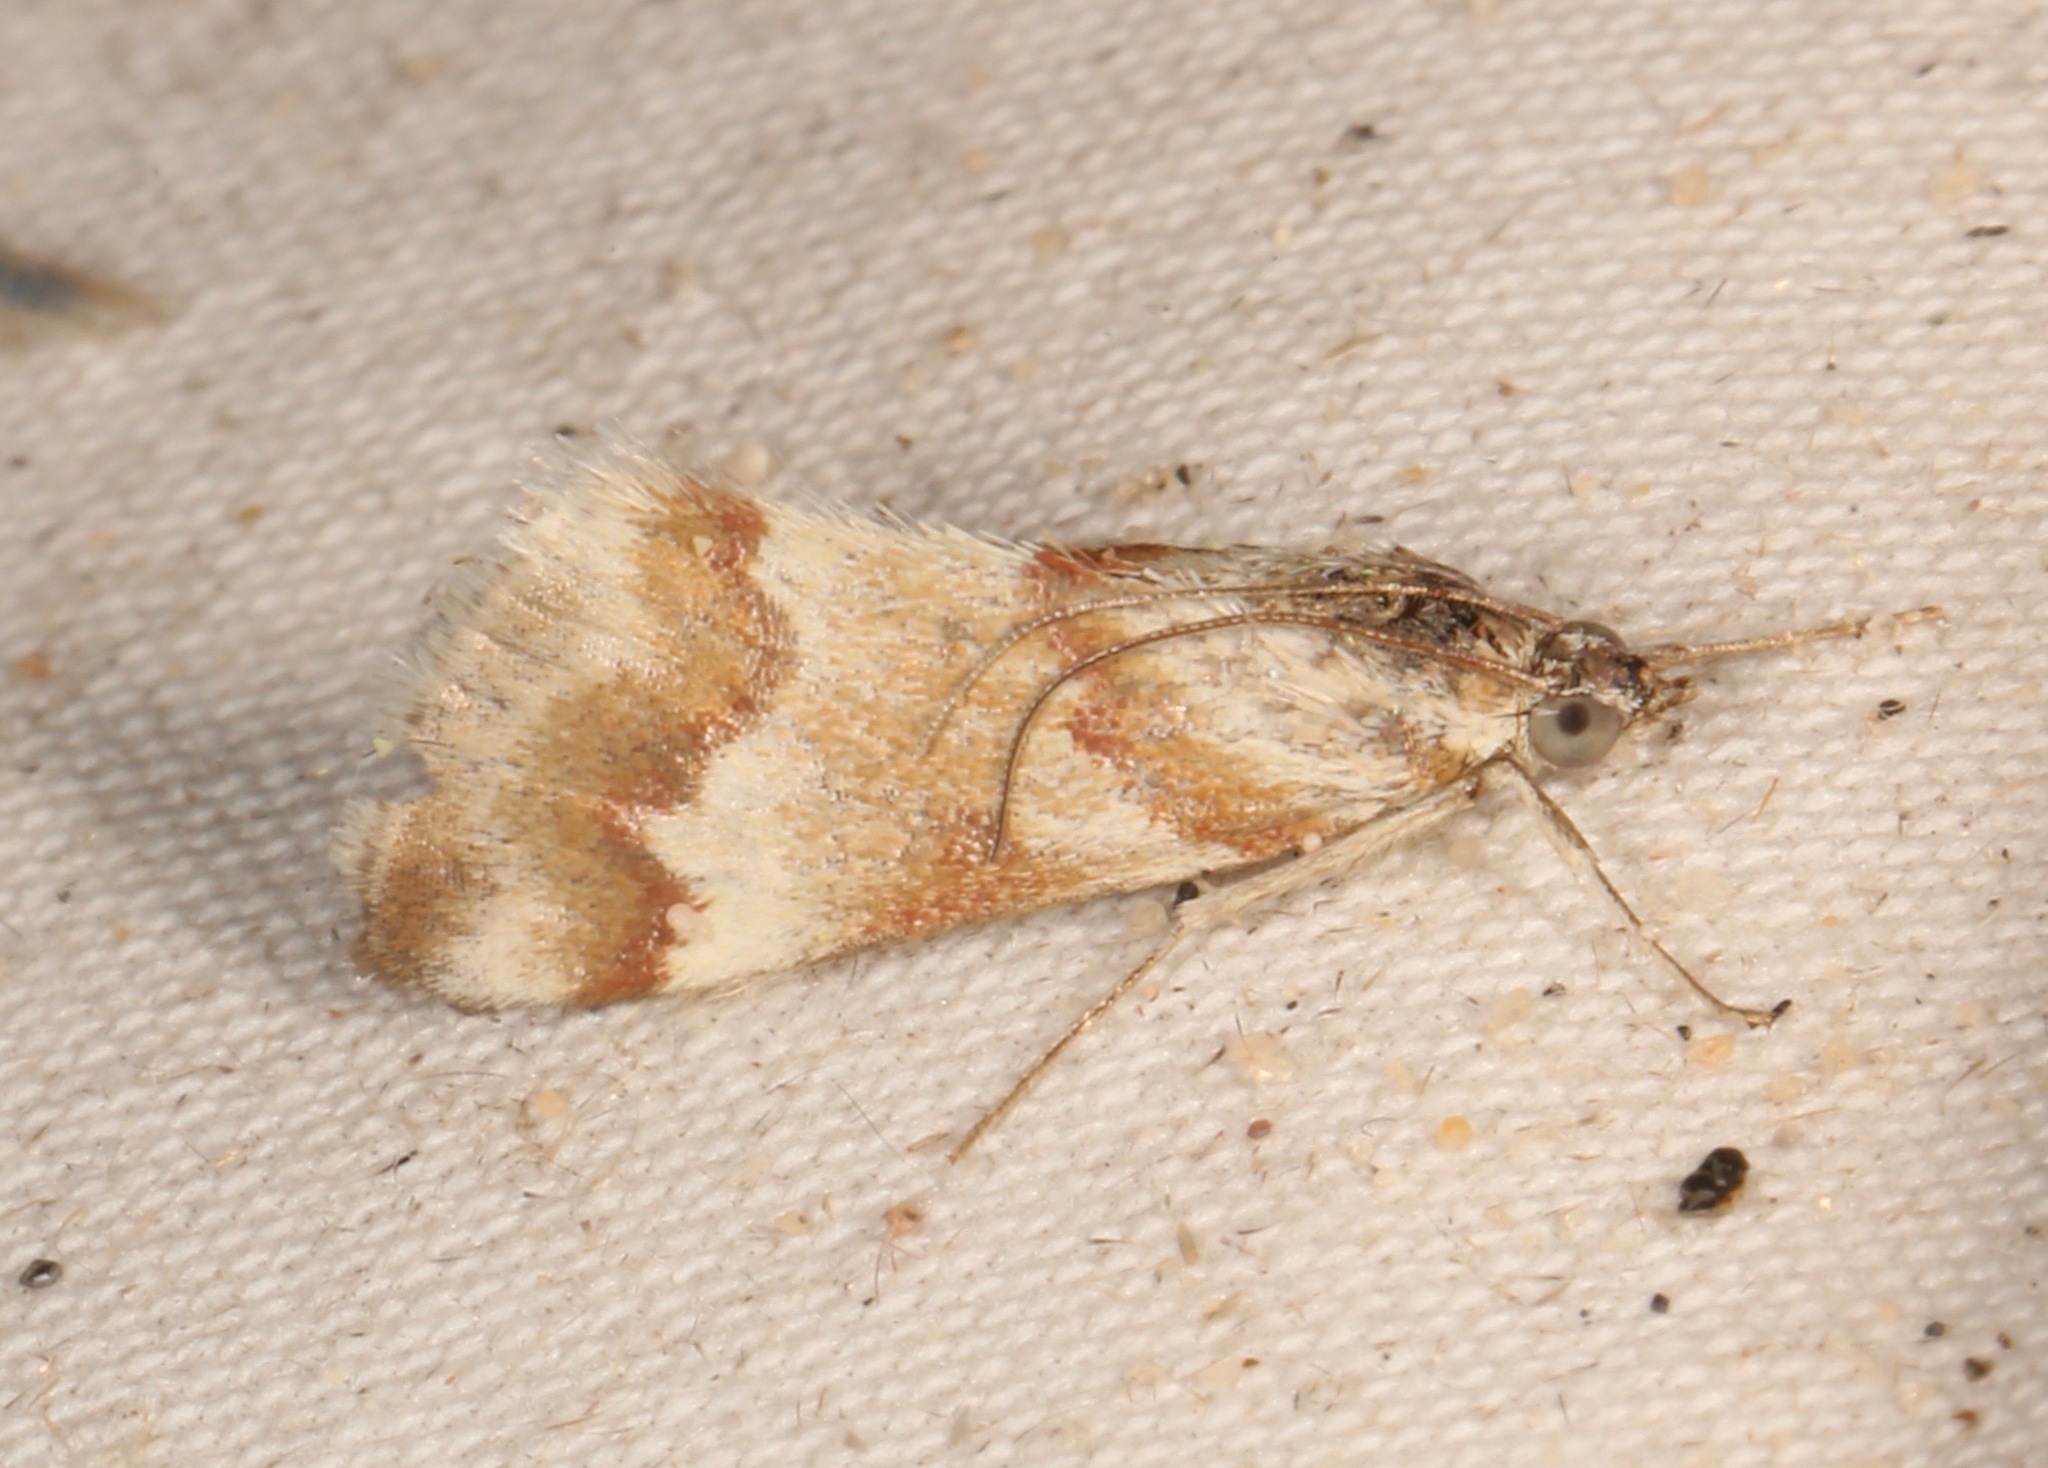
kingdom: Animalia
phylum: Arthropoda
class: Insecta
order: Lepidoptera
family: Crambidae
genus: Noctuelia
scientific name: Noctuelia Mimoschinia rufofascialis
